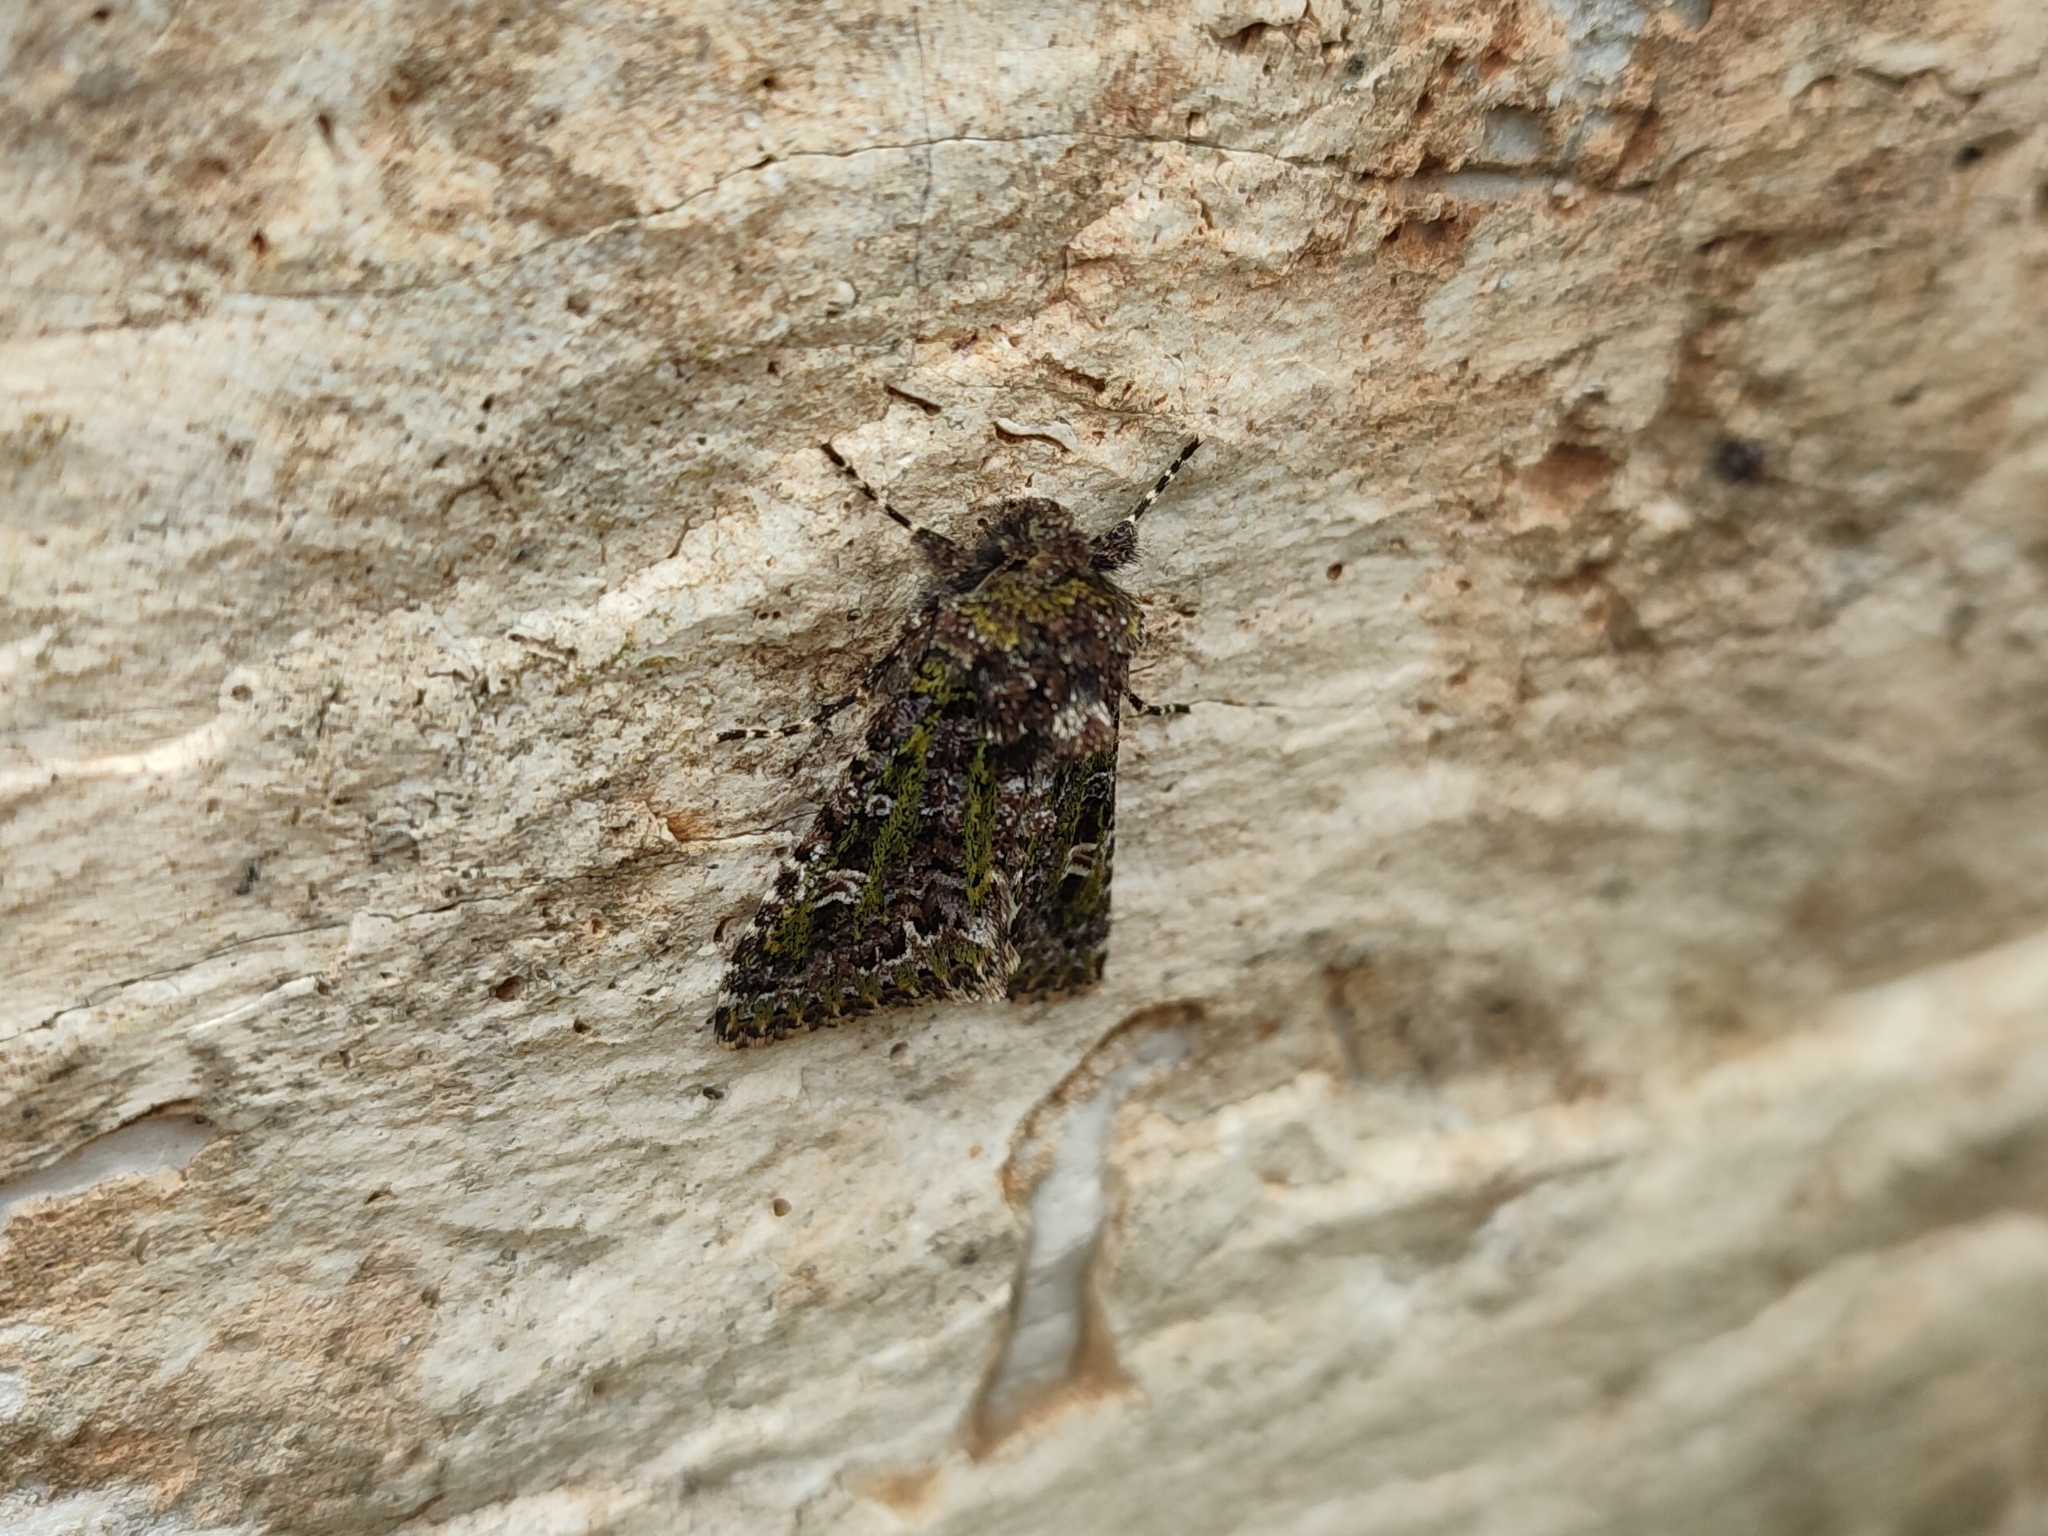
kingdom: Animalia
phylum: Arthropoda
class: Insecta
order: Lepidoptera
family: Noctuidae
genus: Valeria
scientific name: Valeria jaspidea
